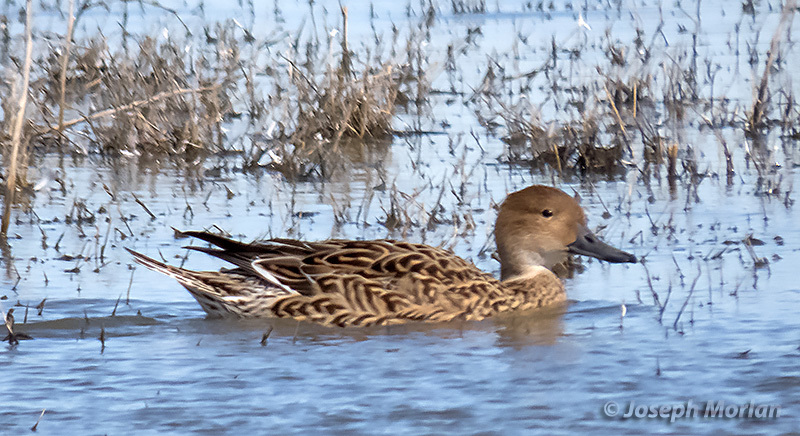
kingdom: Animalia
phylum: Chordata
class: Aves
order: Anseriformes
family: Anatidae
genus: Anas
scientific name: Anas acuta
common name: Northern pintail
